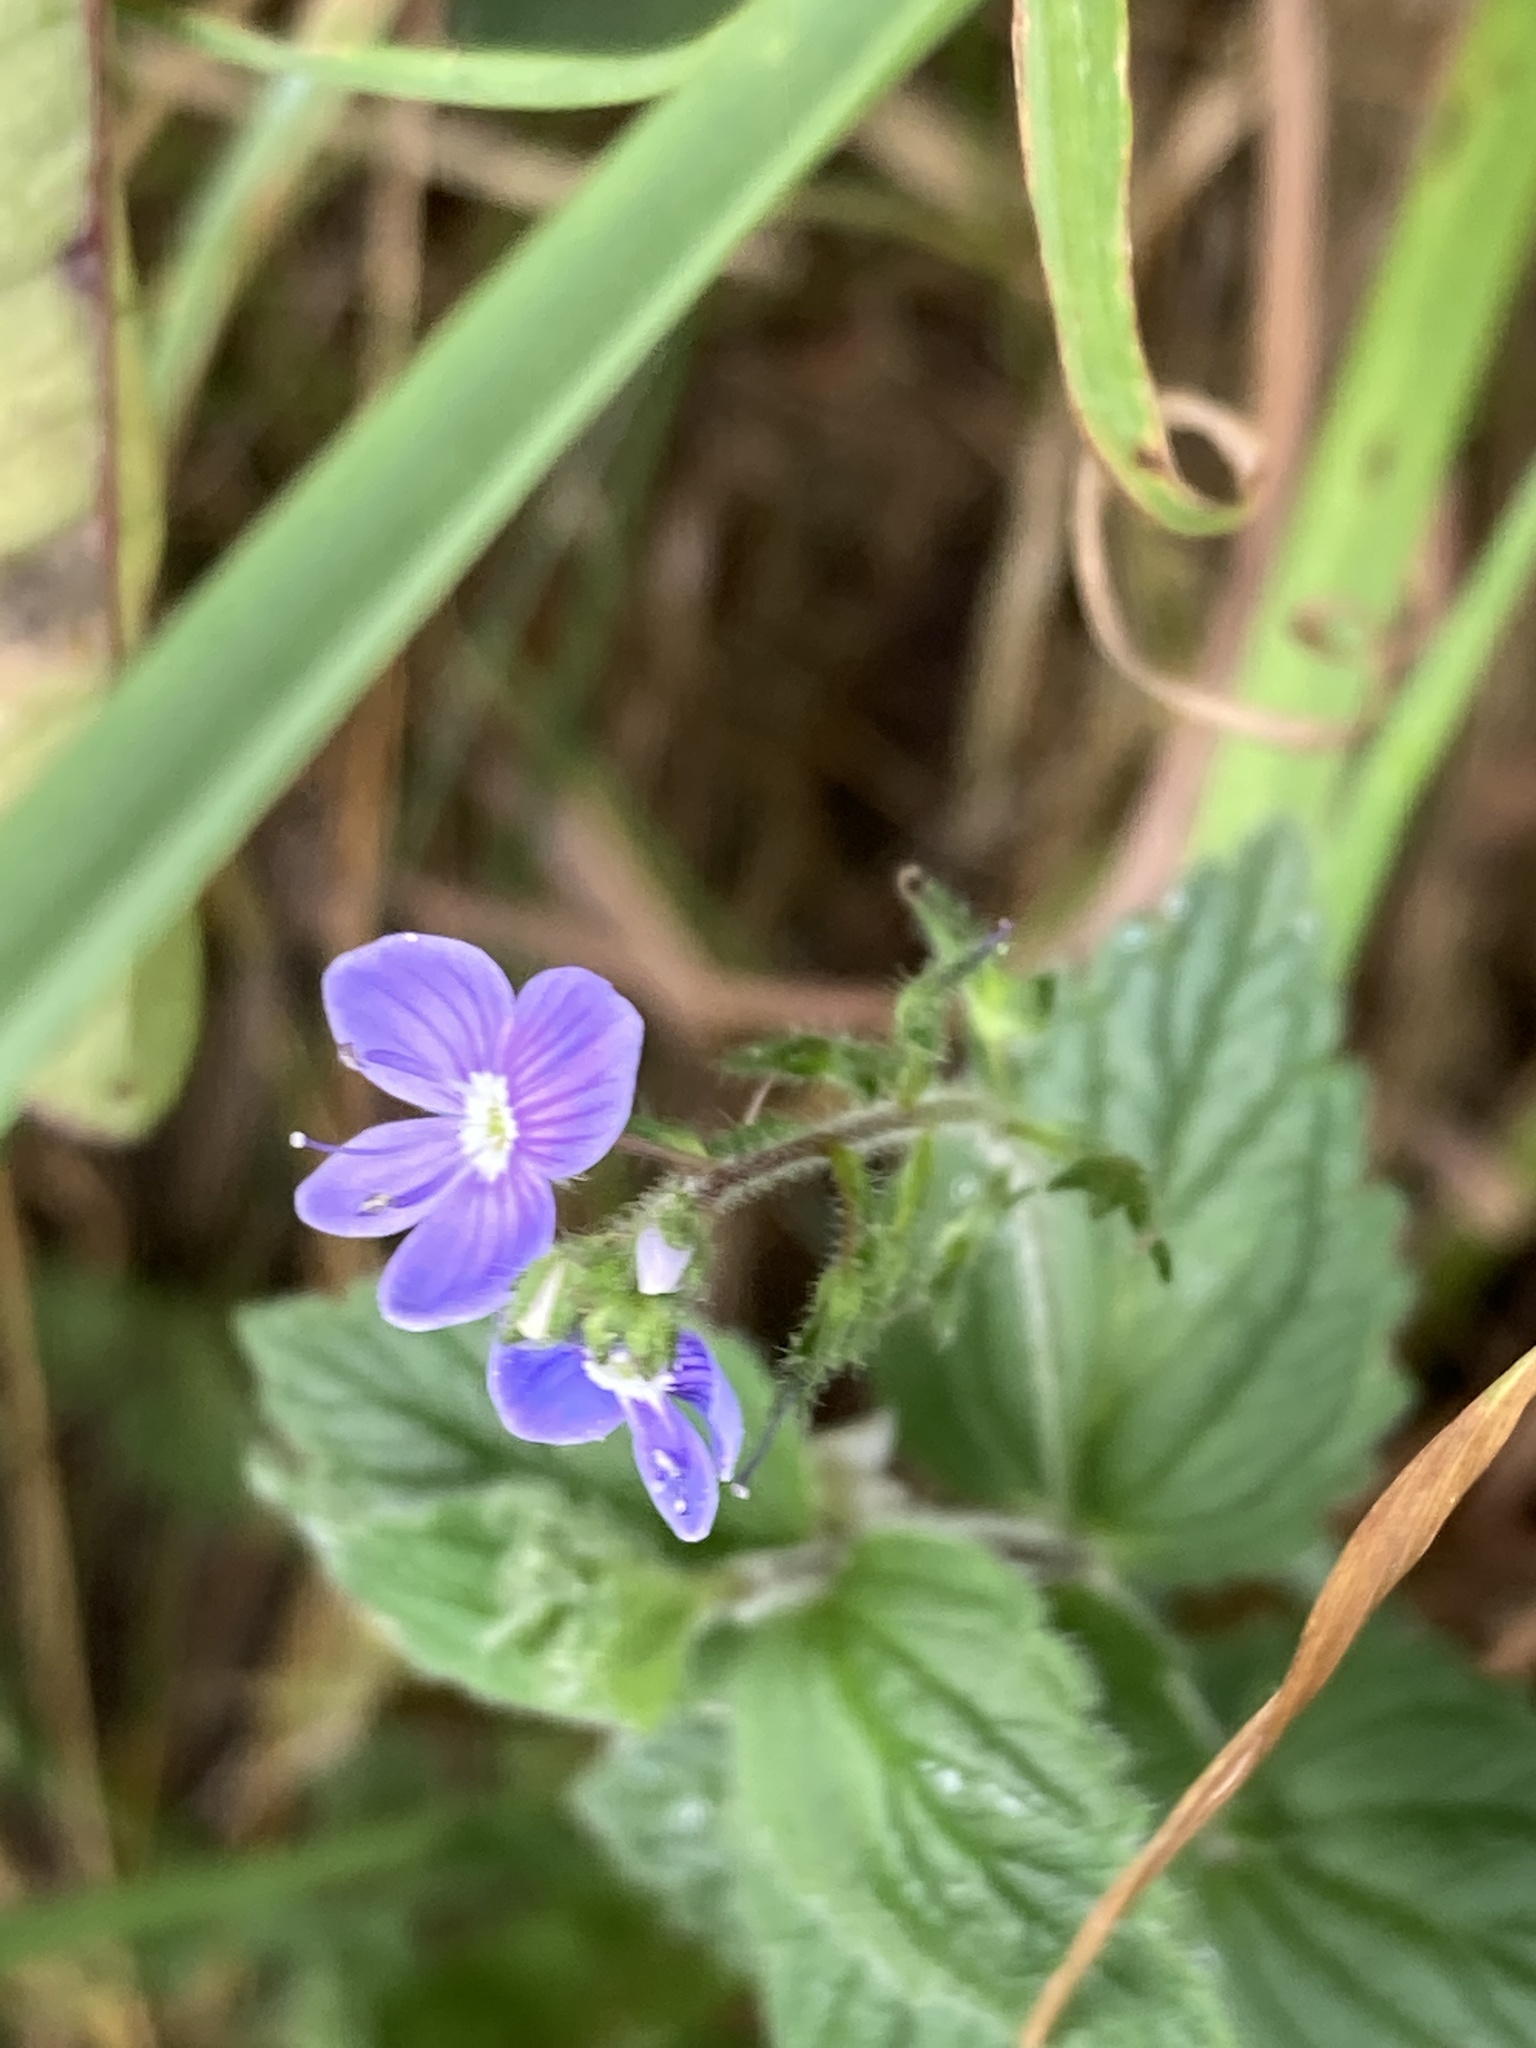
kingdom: Plantae
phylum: Tracheophyta
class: Magnoliopsida
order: Lamiales
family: Plantaginaceae
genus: Veronica
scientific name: Veronica chamaedrys
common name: Germander speedwell
